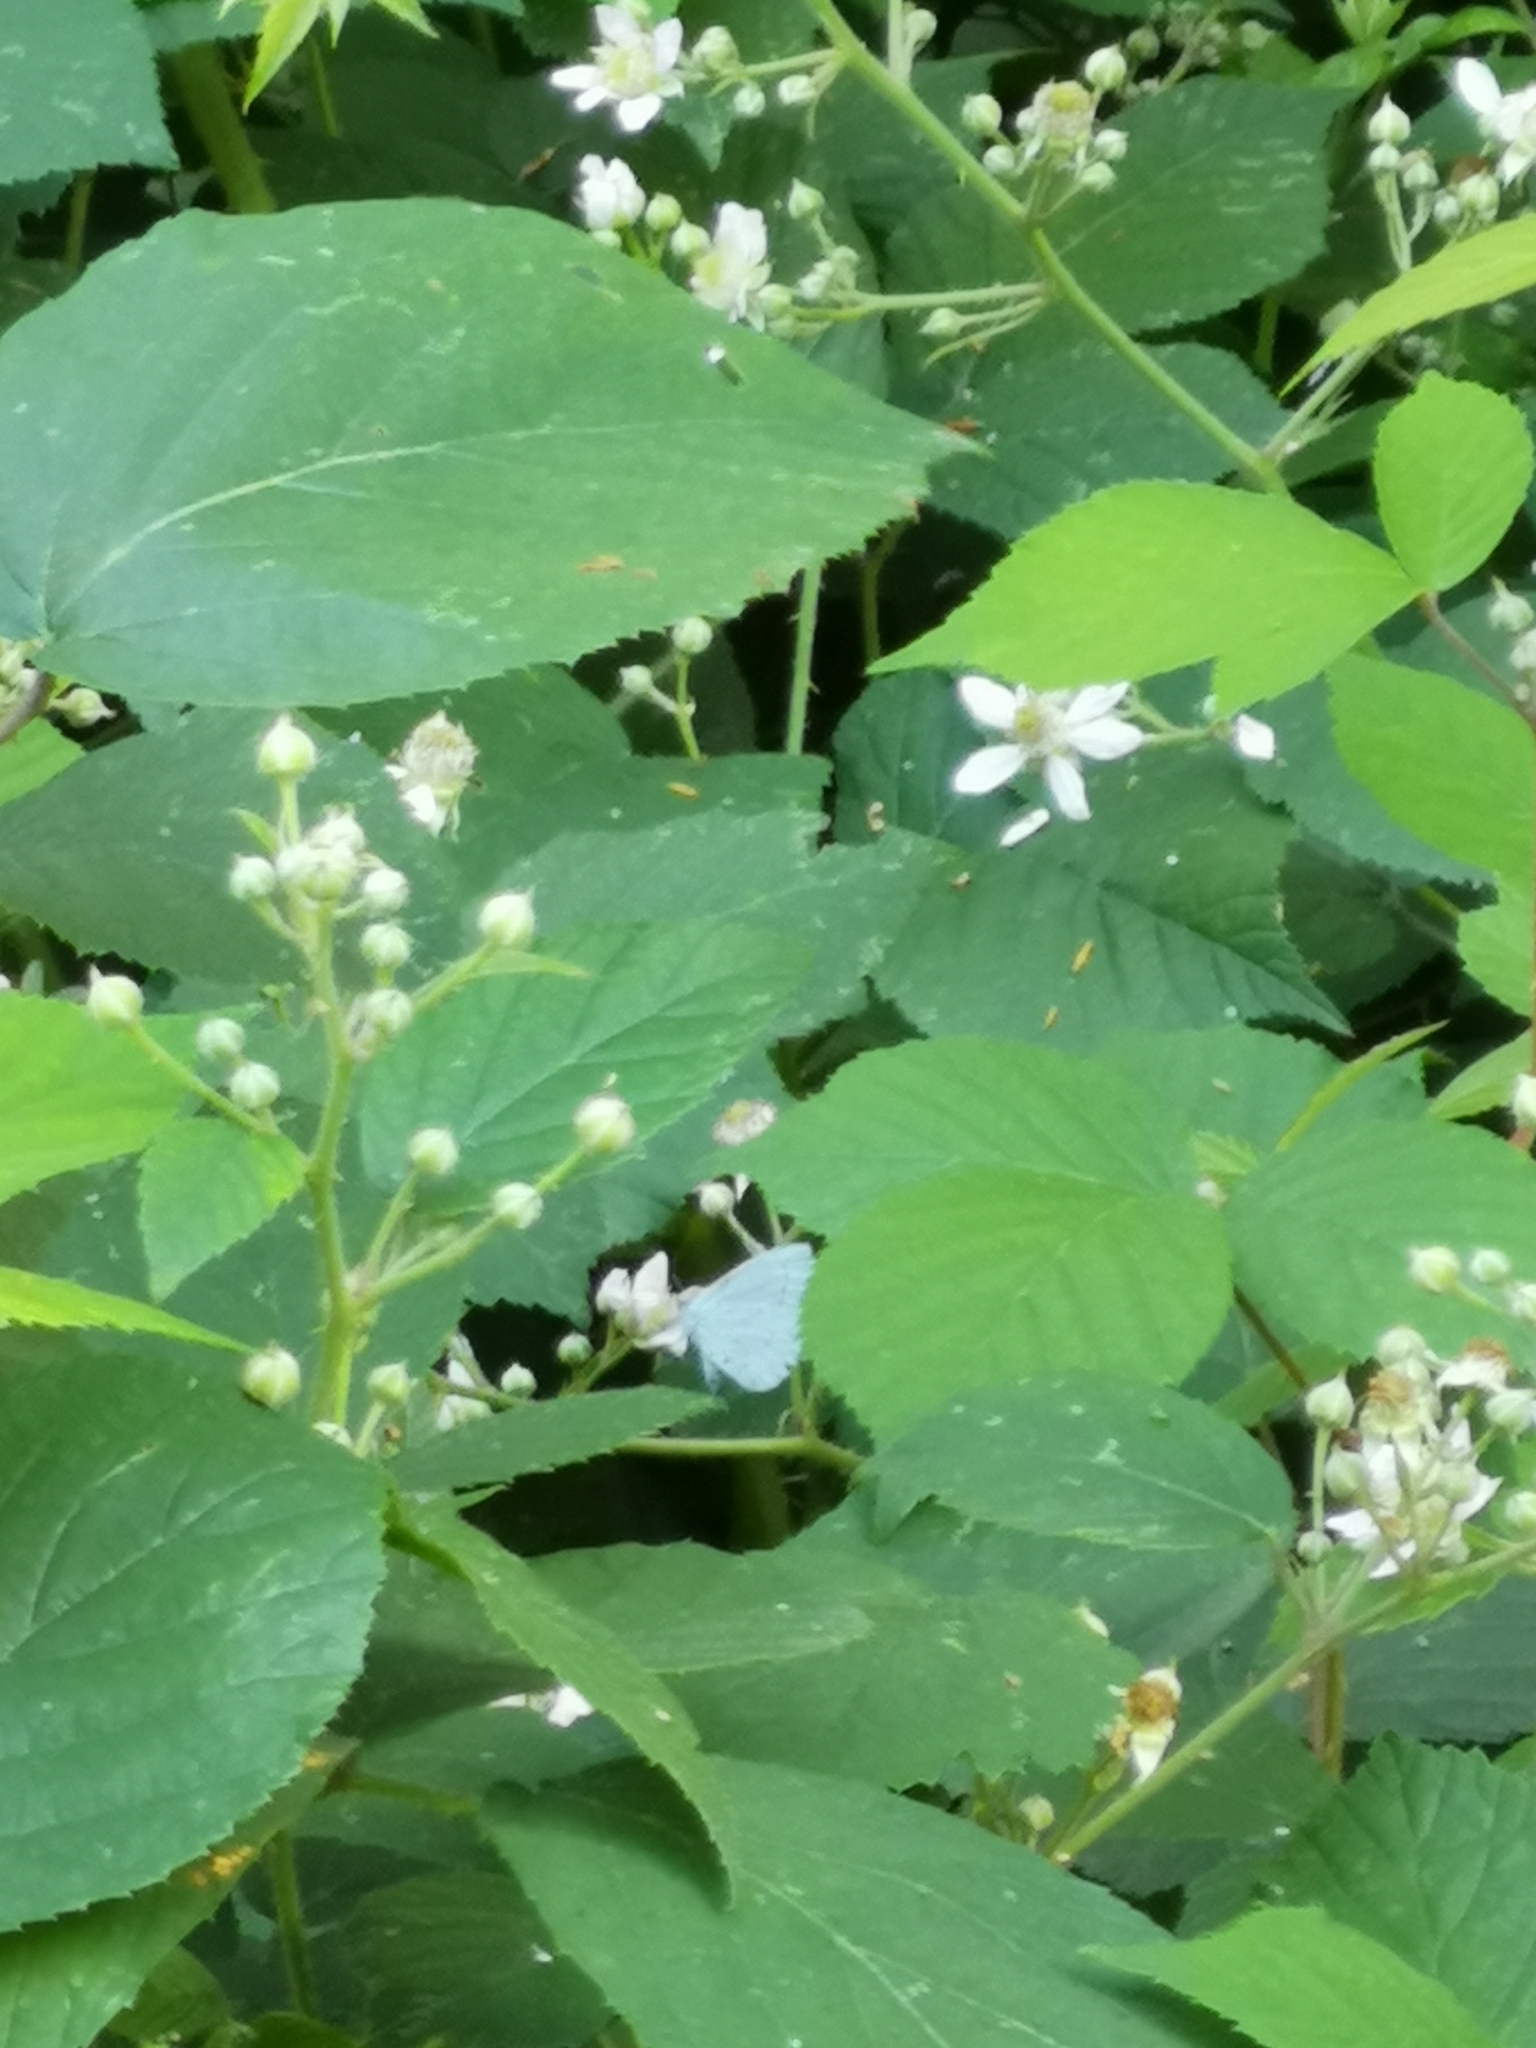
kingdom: Animalia
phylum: Arthropoda
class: Insecta
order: Lepidoptera
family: Lycaenidae
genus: Celastrina
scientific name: Celastrina argiolus
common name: Holly blue
